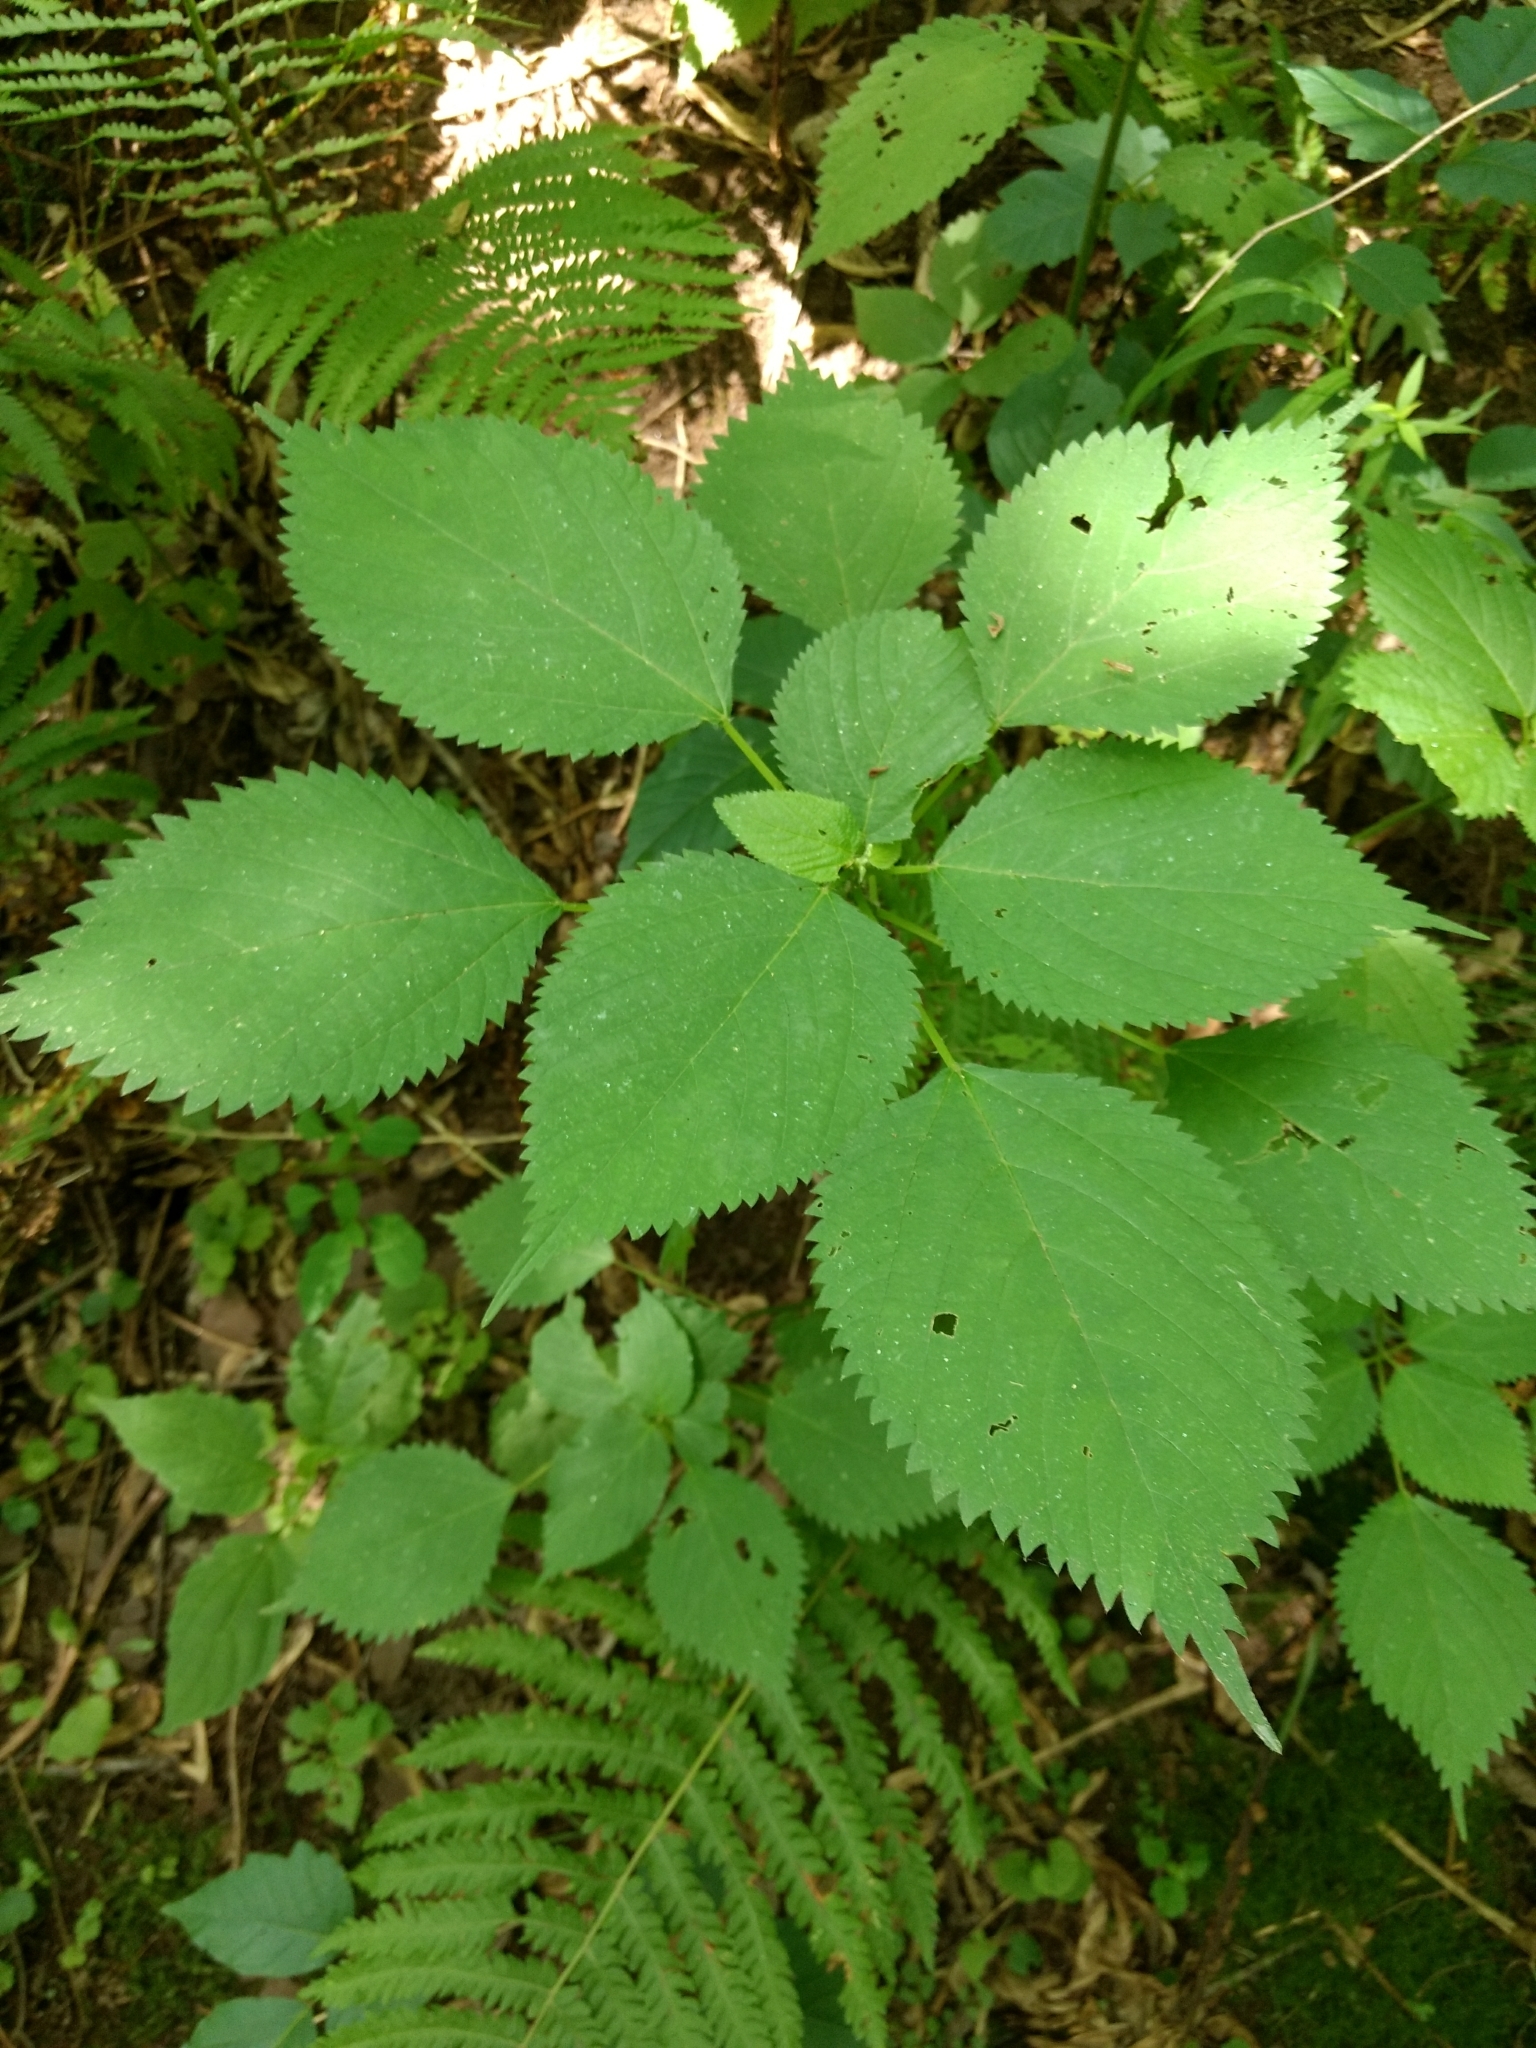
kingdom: Plantae
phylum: Tracheophyta
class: Magnoliopsida
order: Rosales
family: Urticaceae
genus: Laportea
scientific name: Laportea canadensis
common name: Canada nettle
